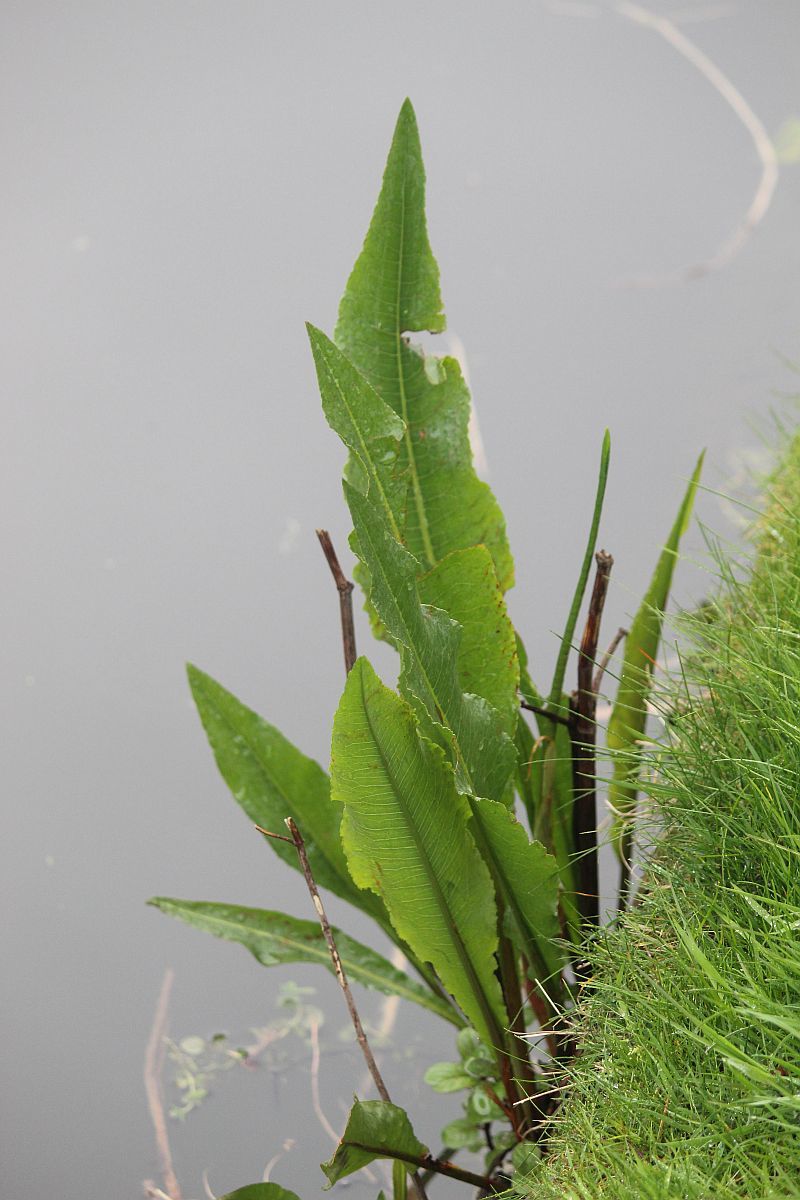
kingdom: Plantae
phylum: Tracheophyta
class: Magnoliopsida
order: Caryophyllales
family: Polygonaceae
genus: Rumex
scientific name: Rumex hydrolapathum
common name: Water dock
